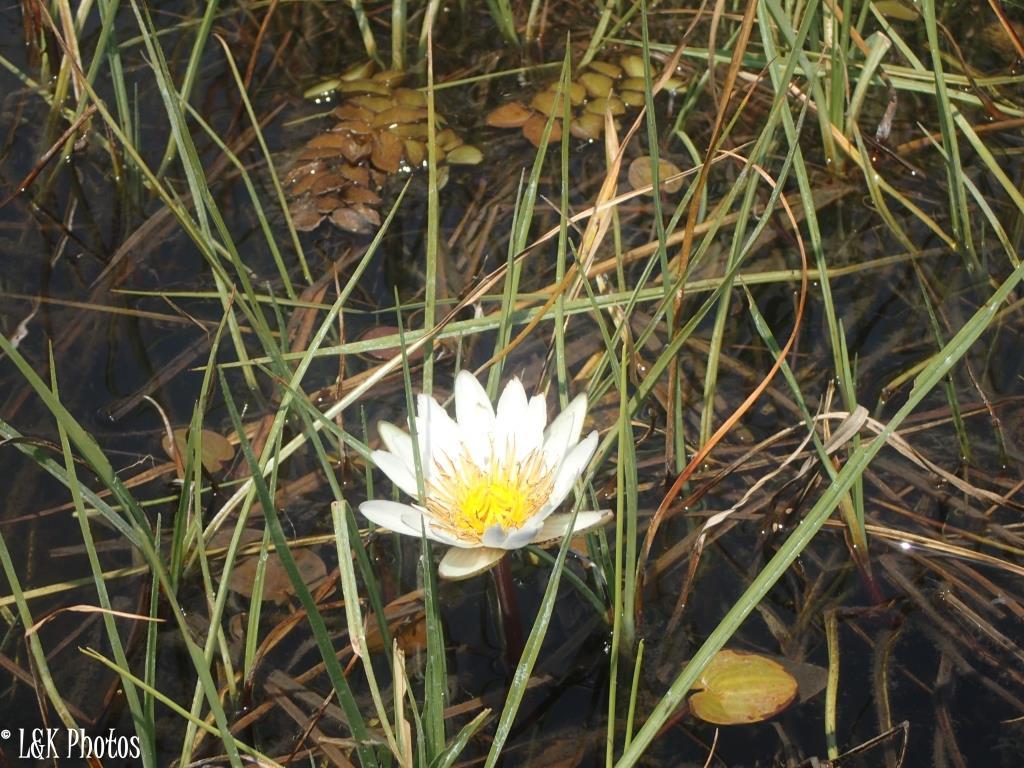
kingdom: Plantae
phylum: Tracheophyta
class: Magnoliopsida
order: Nymphaeales
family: Nymphaeaceae
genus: Nymphaea
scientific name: Nymphaea nouchali
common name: Blue lotus
